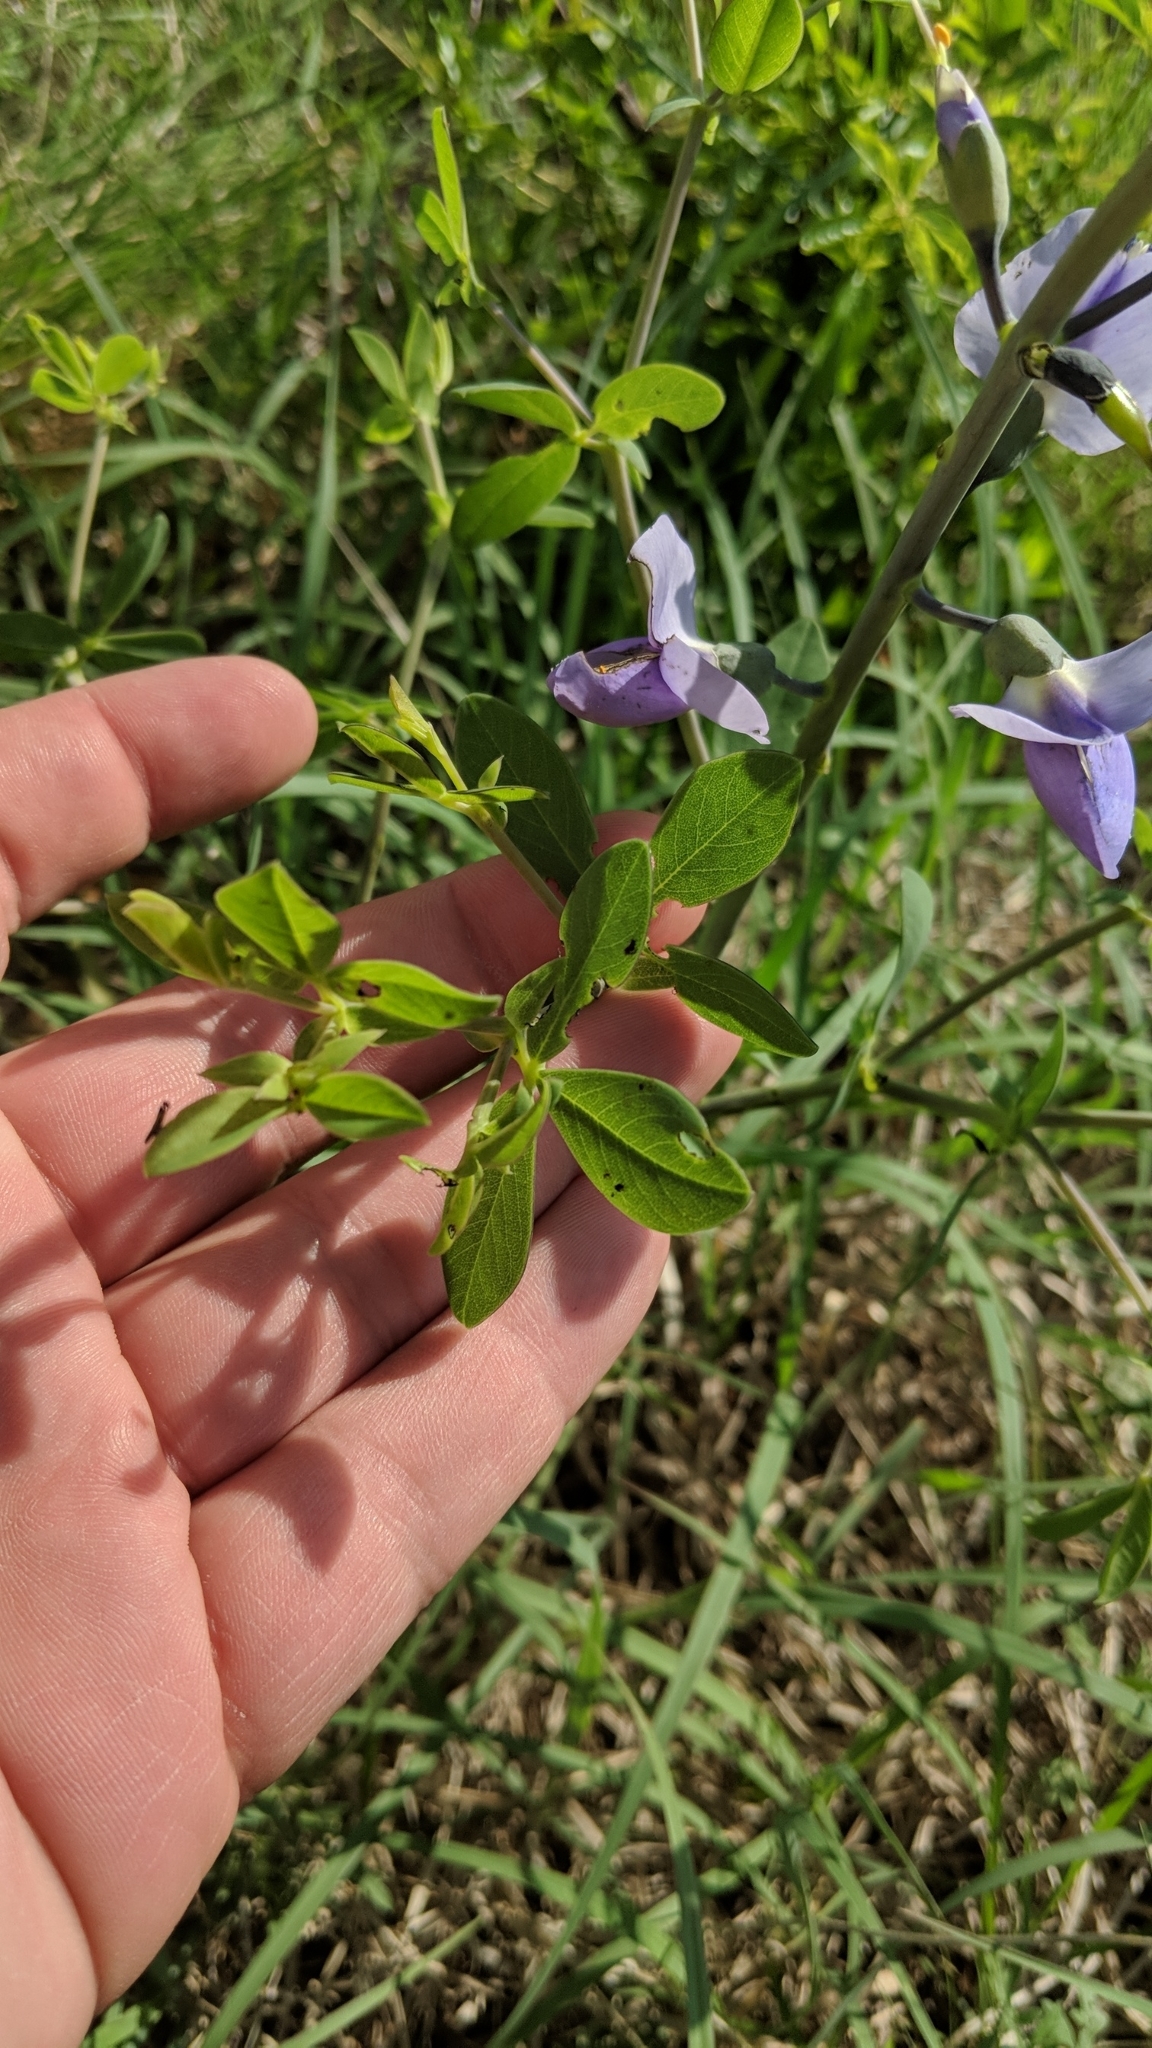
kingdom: Plantae
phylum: Tracheophyta
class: Magnoliopsida
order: Fabales
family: Fabaceae
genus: Baptisia
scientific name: Baptisia australis
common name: Blue false indigo
